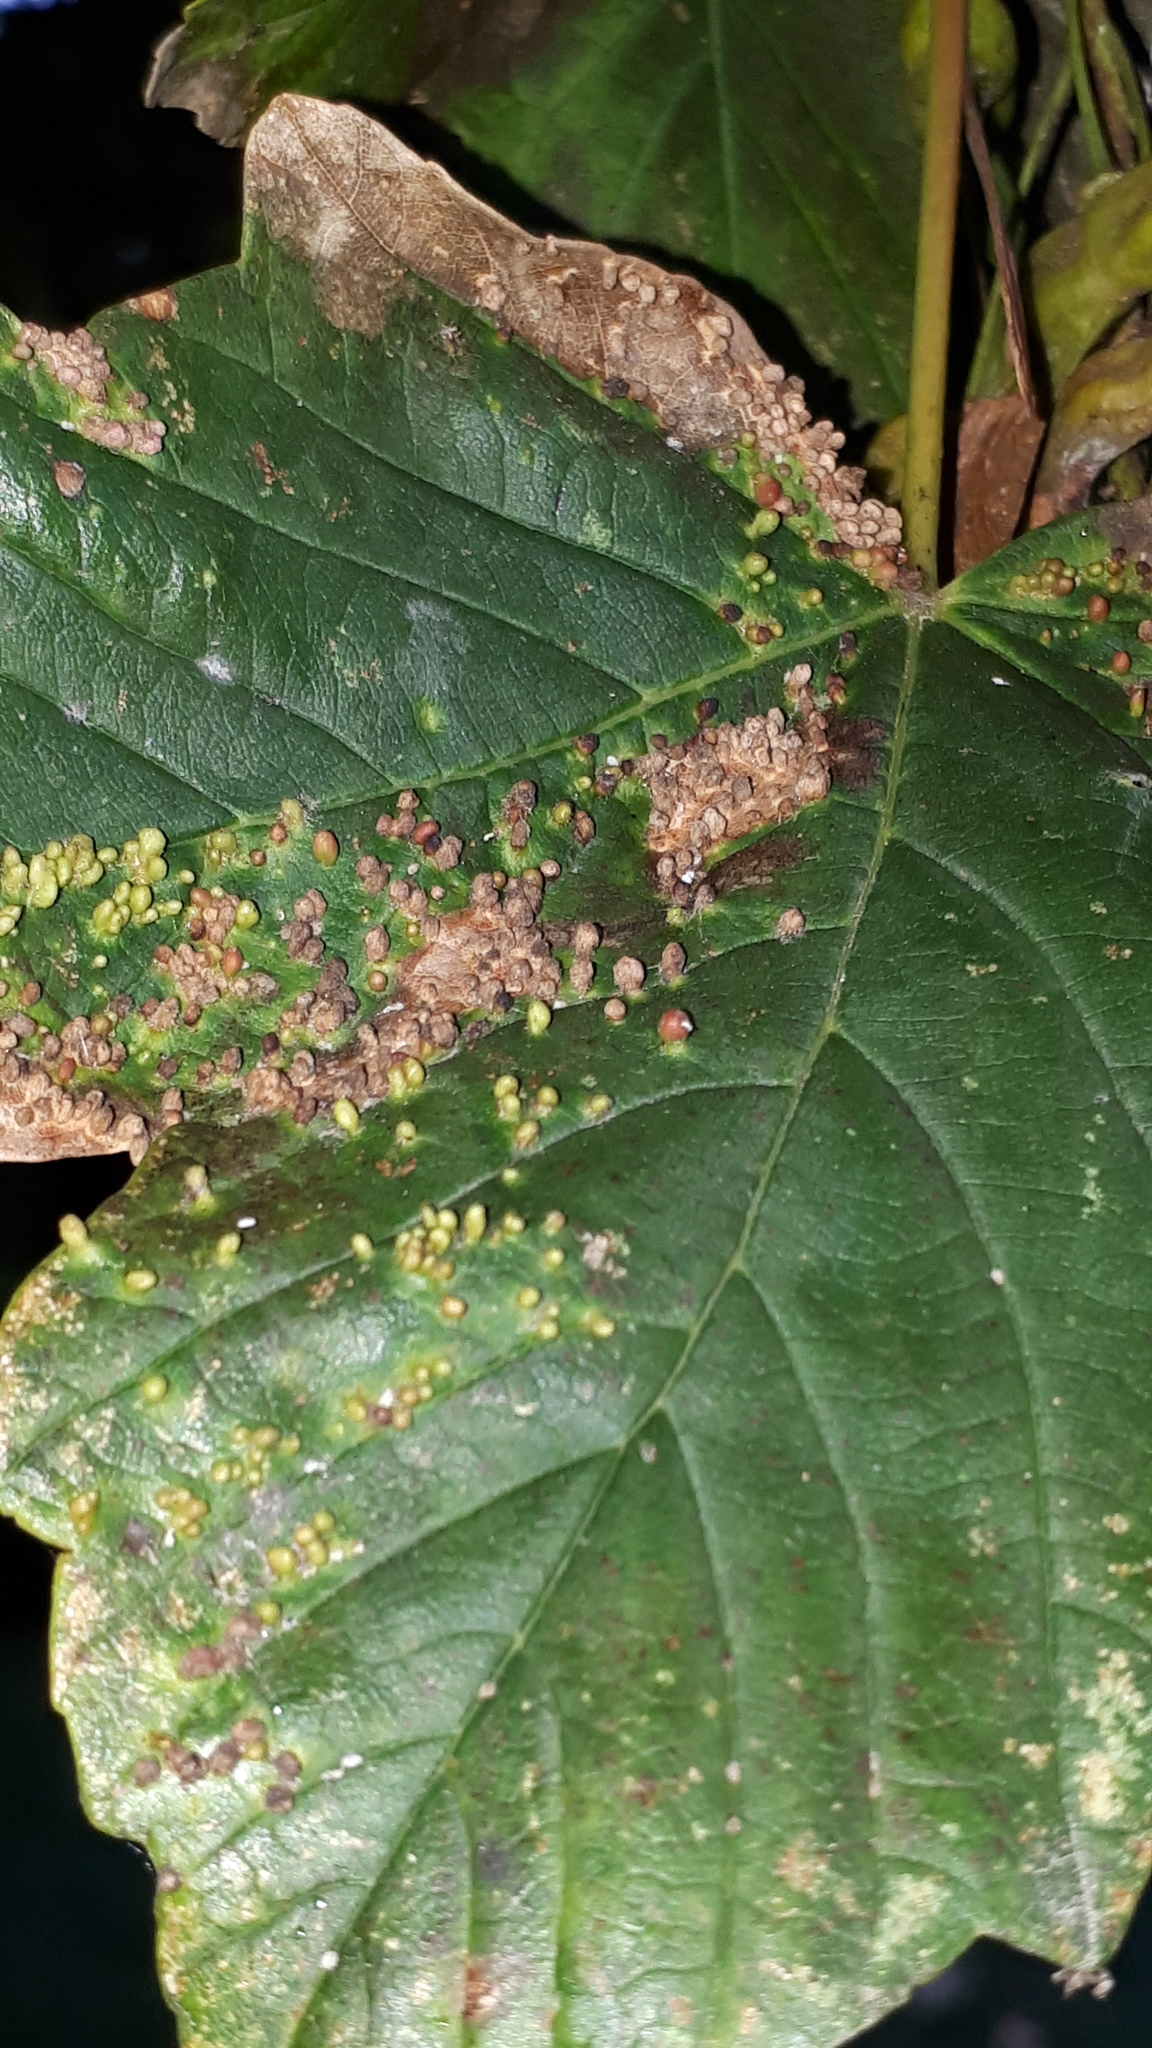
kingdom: Animalia
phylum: Arthropoda
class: Arachnida
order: Trombidiformes
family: Eriophyidae
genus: Aceria
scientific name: Aceria cephaloneus
